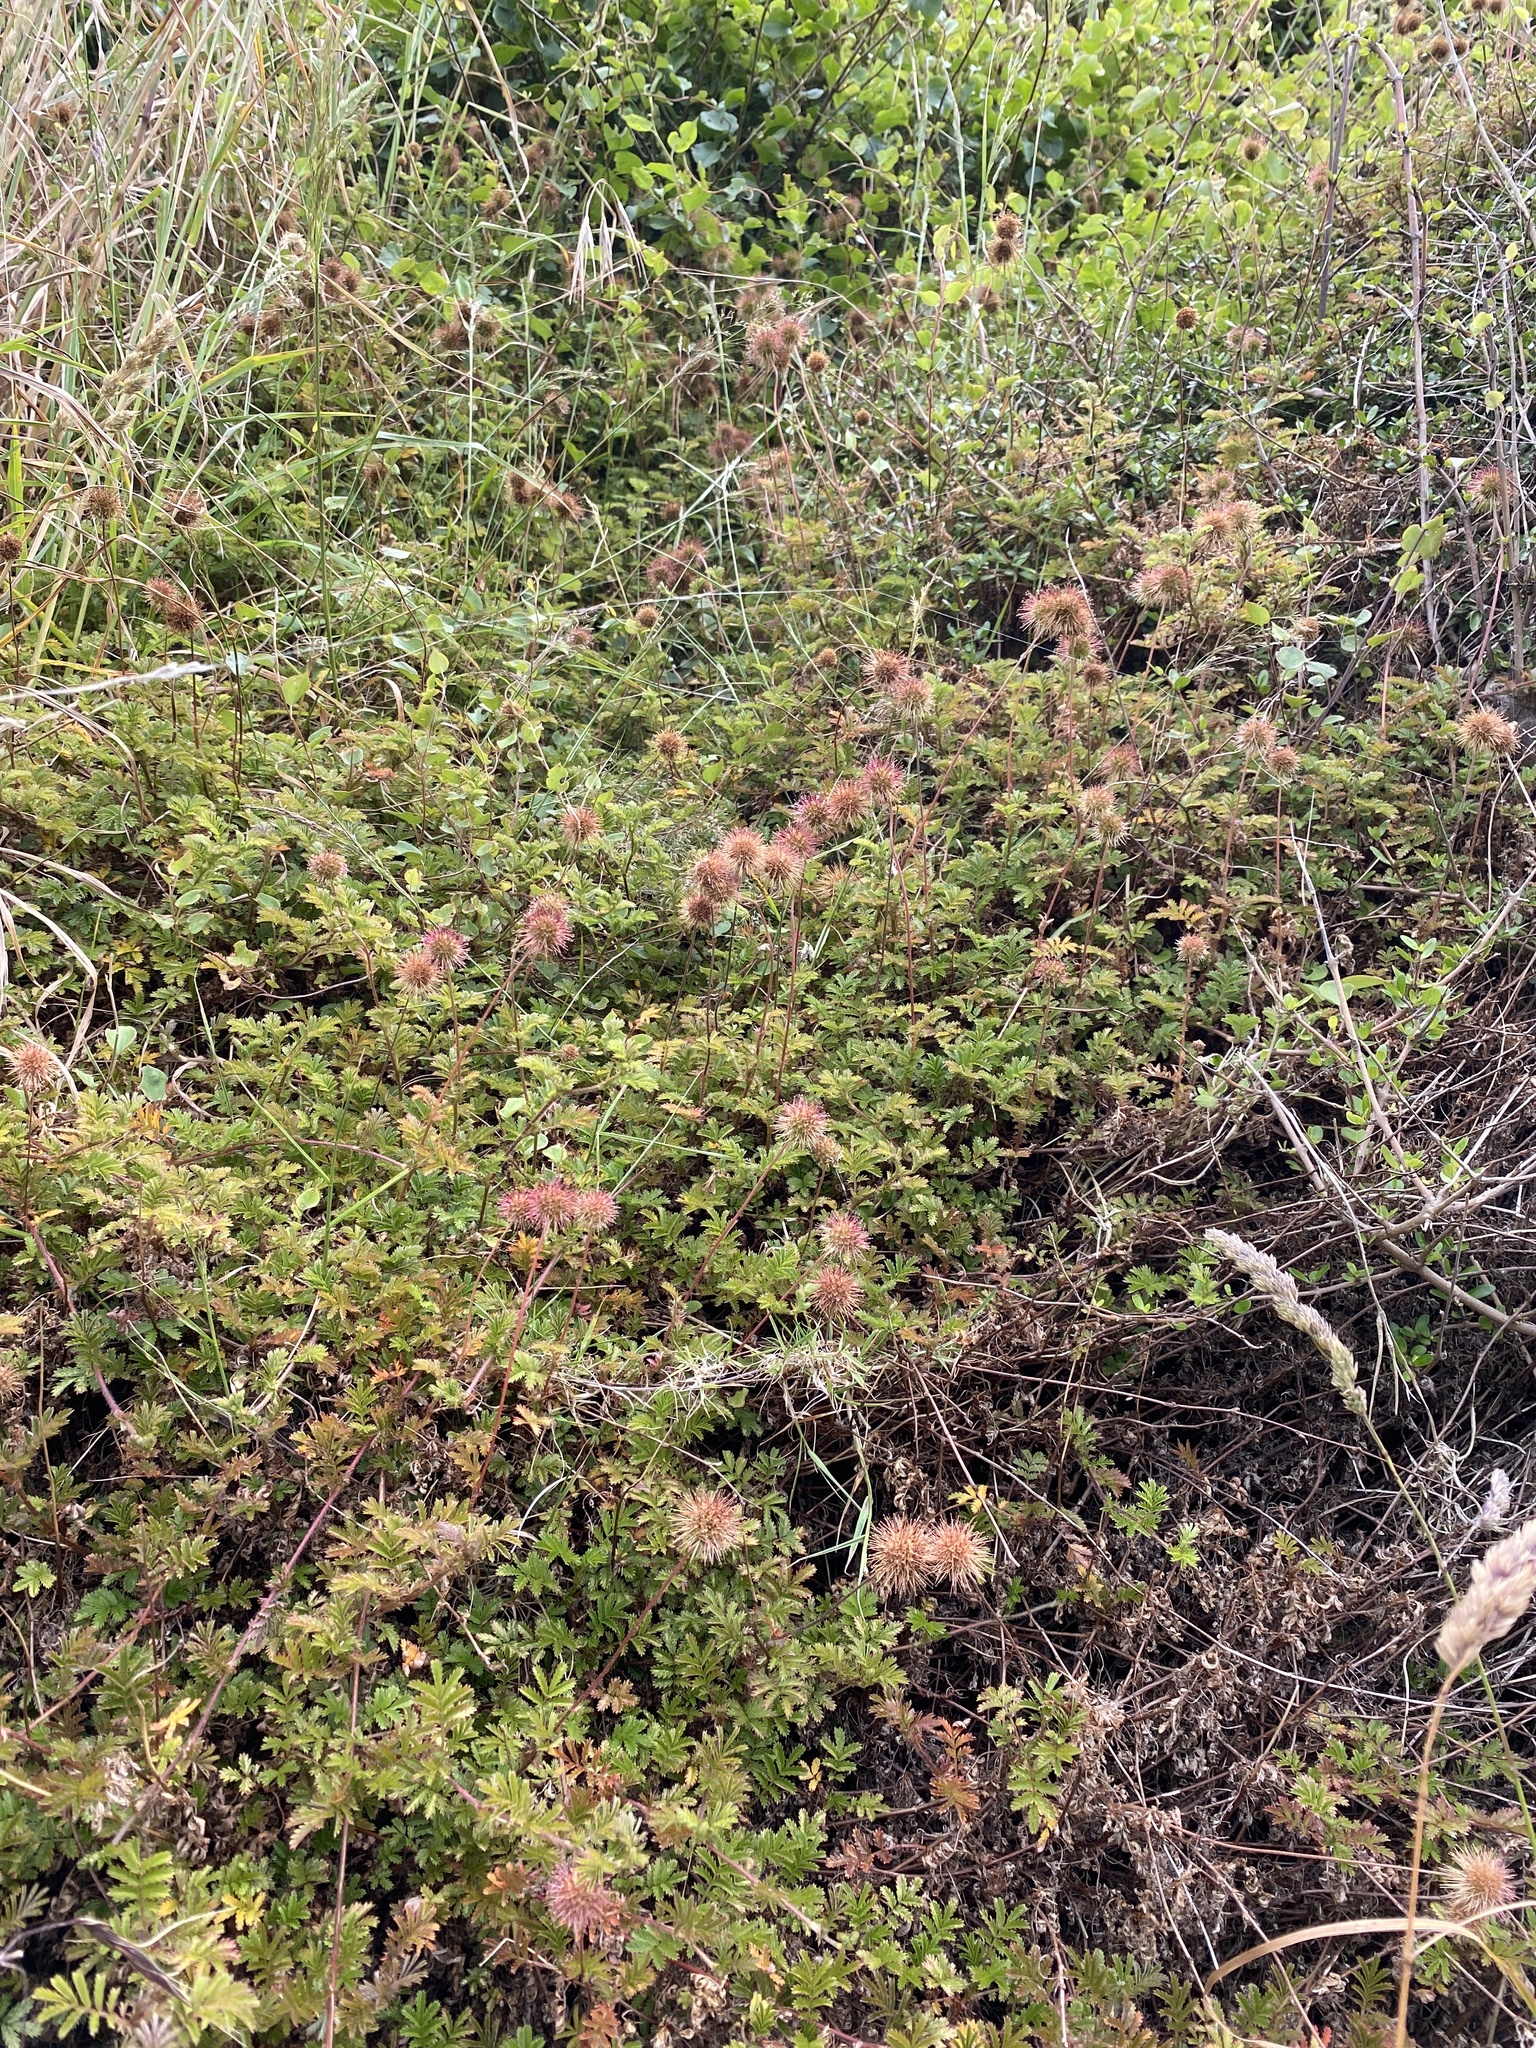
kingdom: Plantae
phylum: Tracheophyta
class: Magnoliopsida
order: Rosales
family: Rosaceae
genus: Acaena
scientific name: Acaena novae-zelandiae
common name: Pirri-pirri-bur
